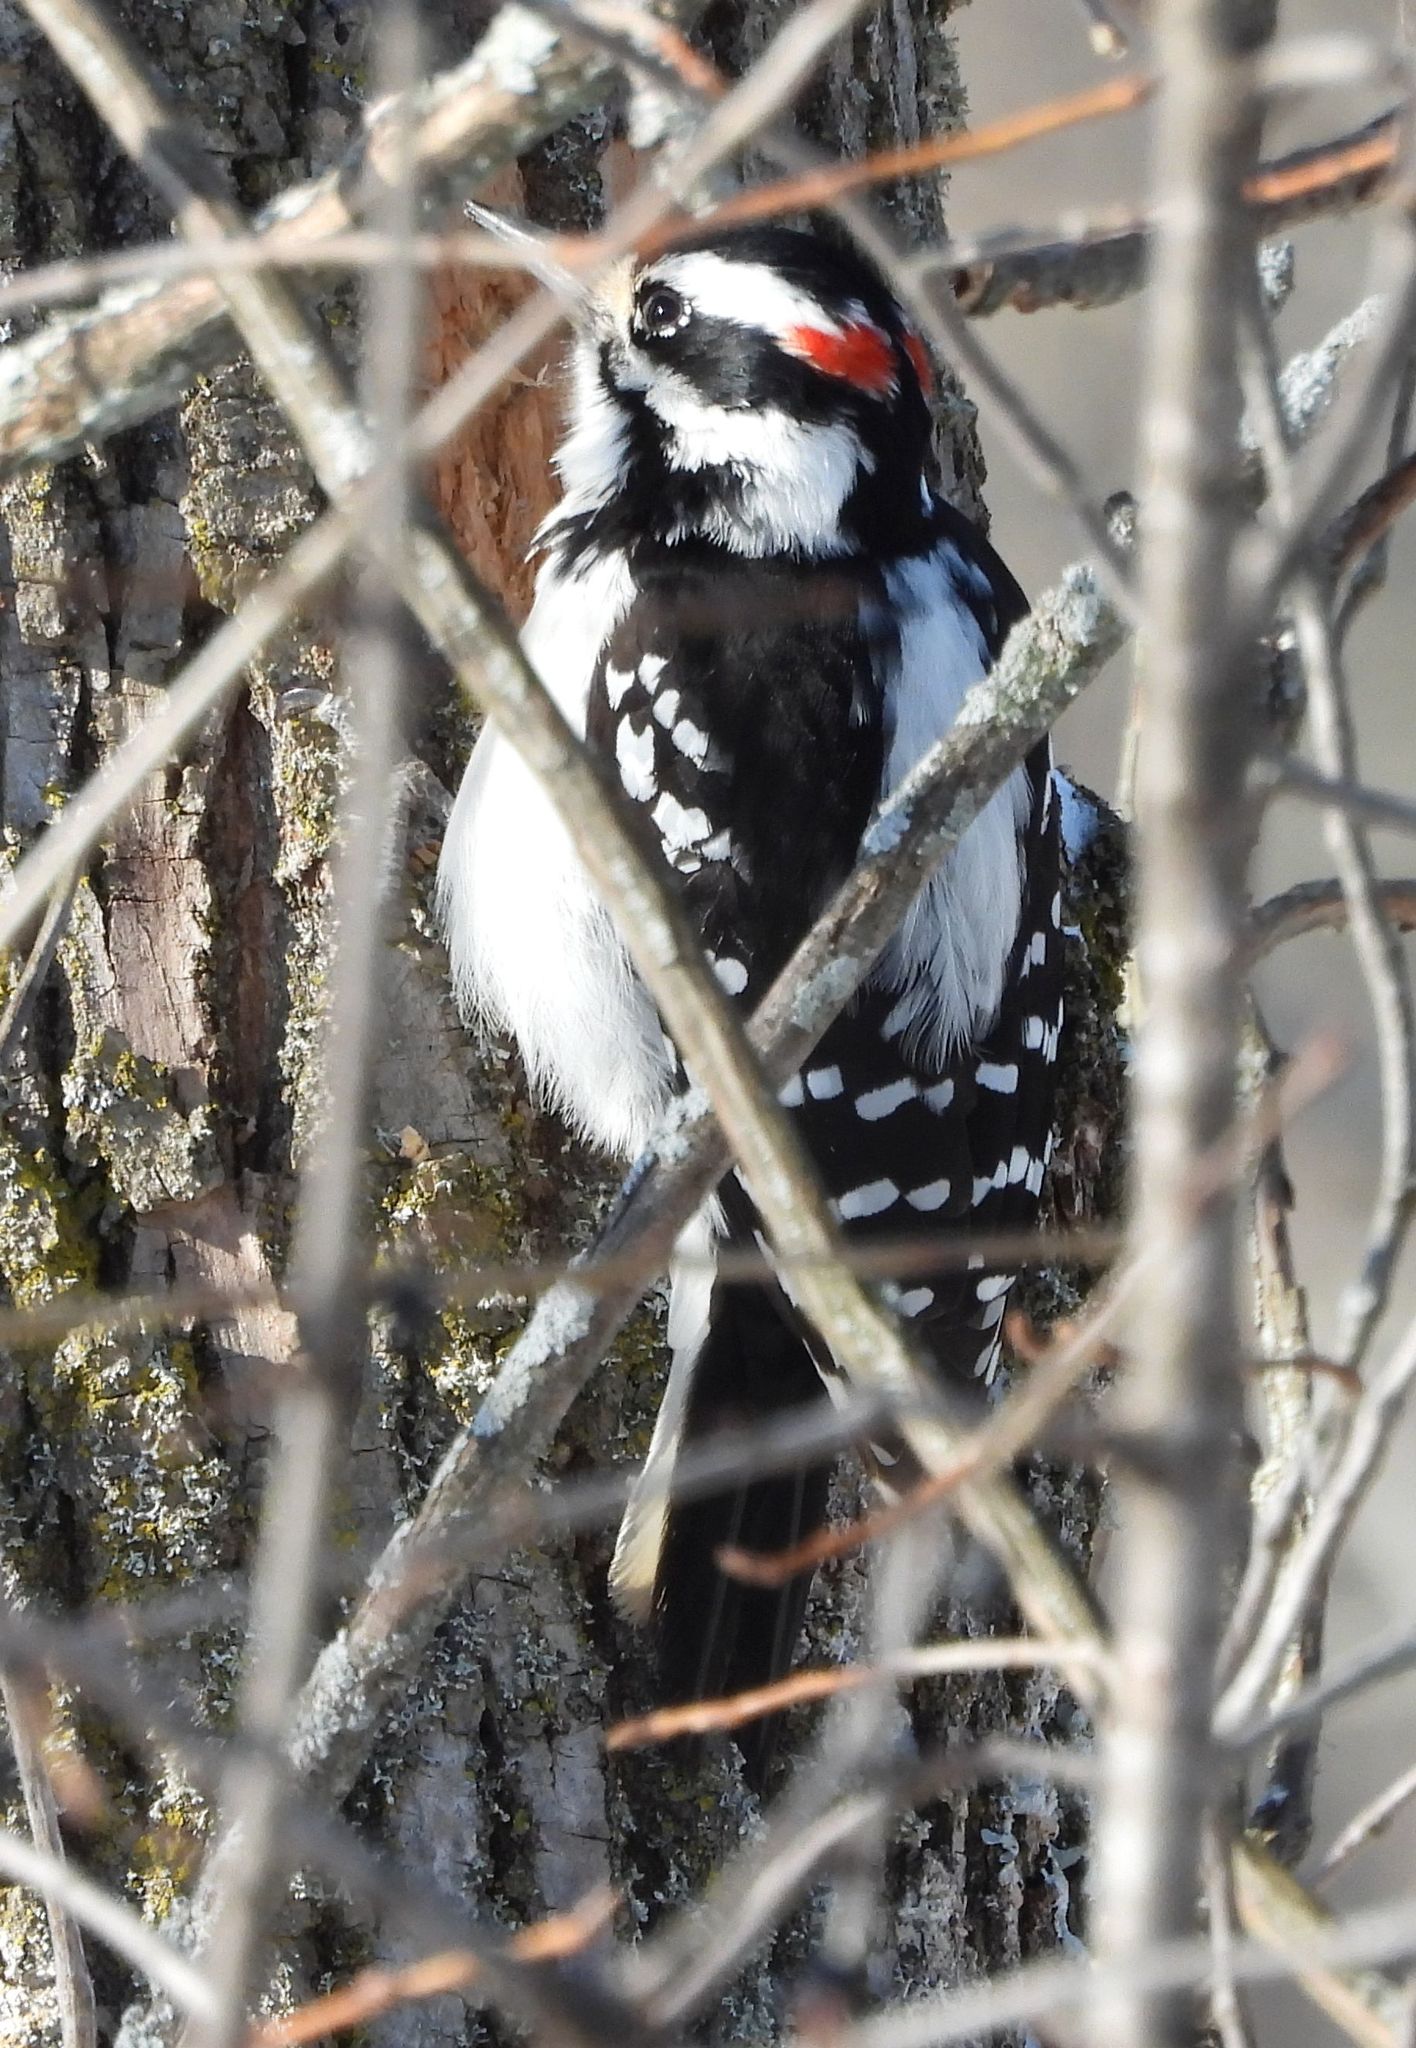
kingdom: Animalia
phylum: Chordata
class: Aves
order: Piciformes
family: Picidae
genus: Leuconotopicus
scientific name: Leuconotopicus villosus
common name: Hairy woodpecker
